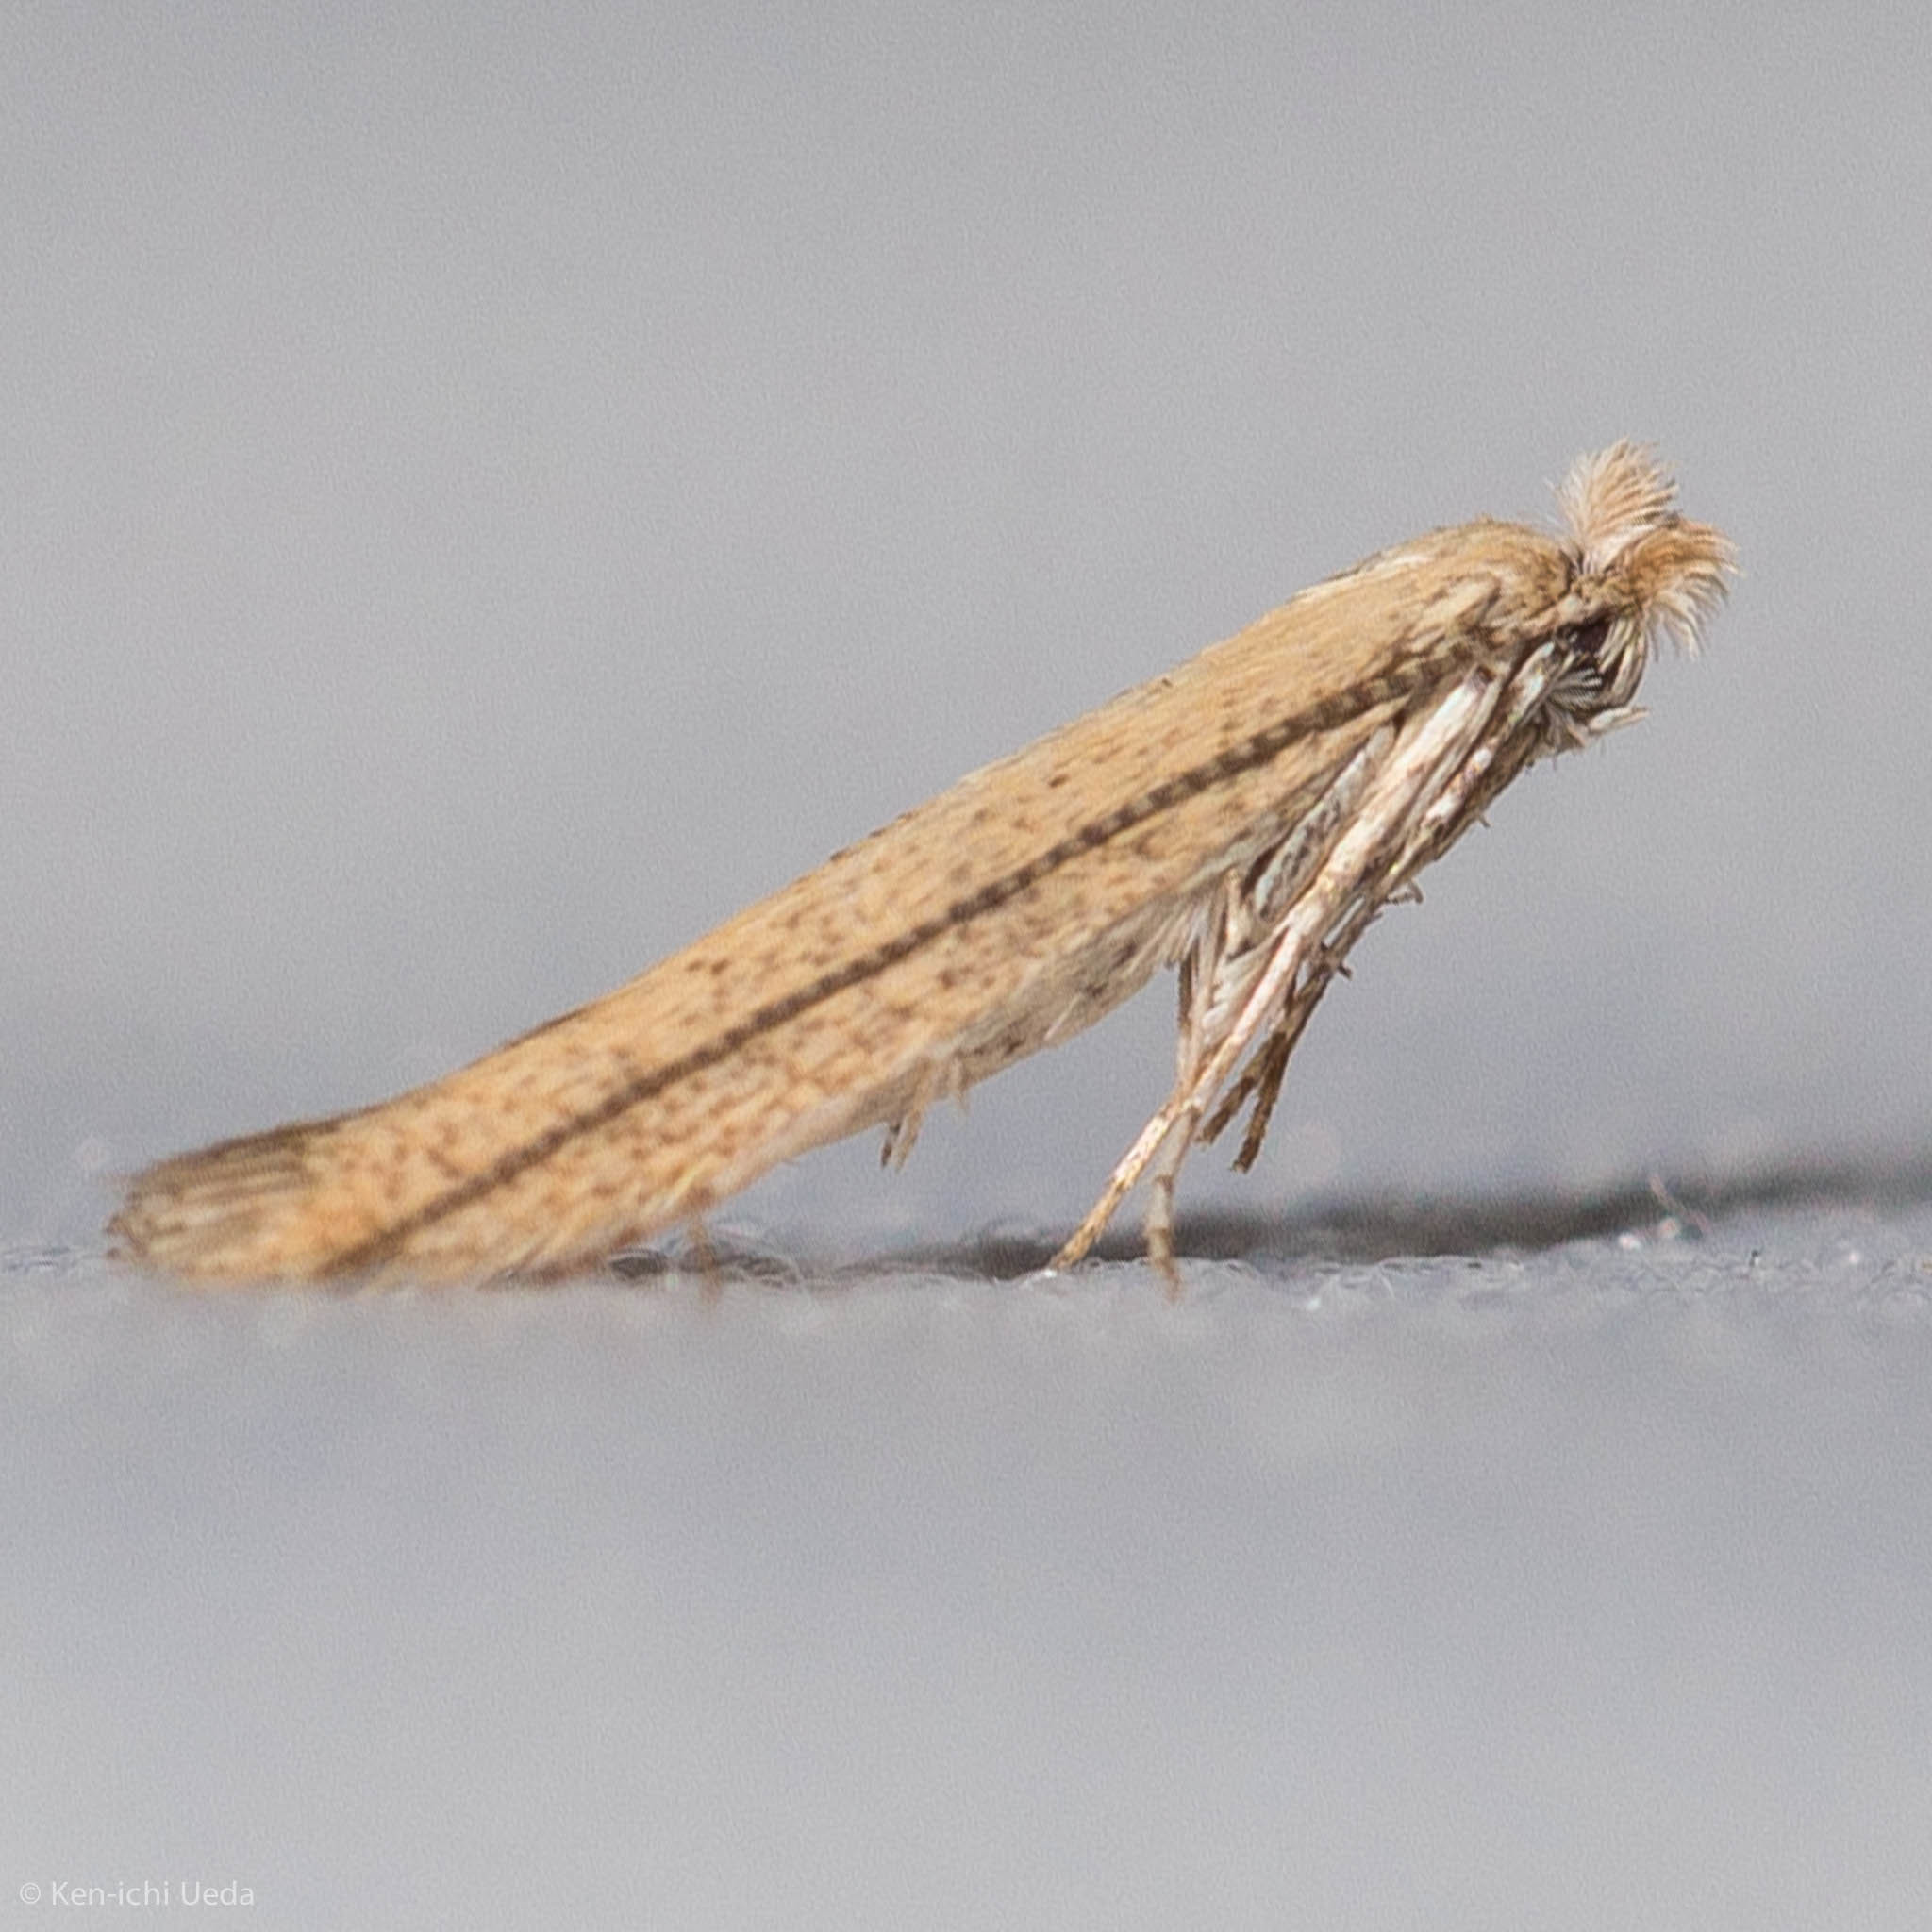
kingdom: Animalia
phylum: Arthropoda
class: Insecta
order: Lepidoptera
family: Bedelliidae
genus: Bedellia
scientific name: Bedellia somnulentella
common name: Morning-glory leafminer moth
